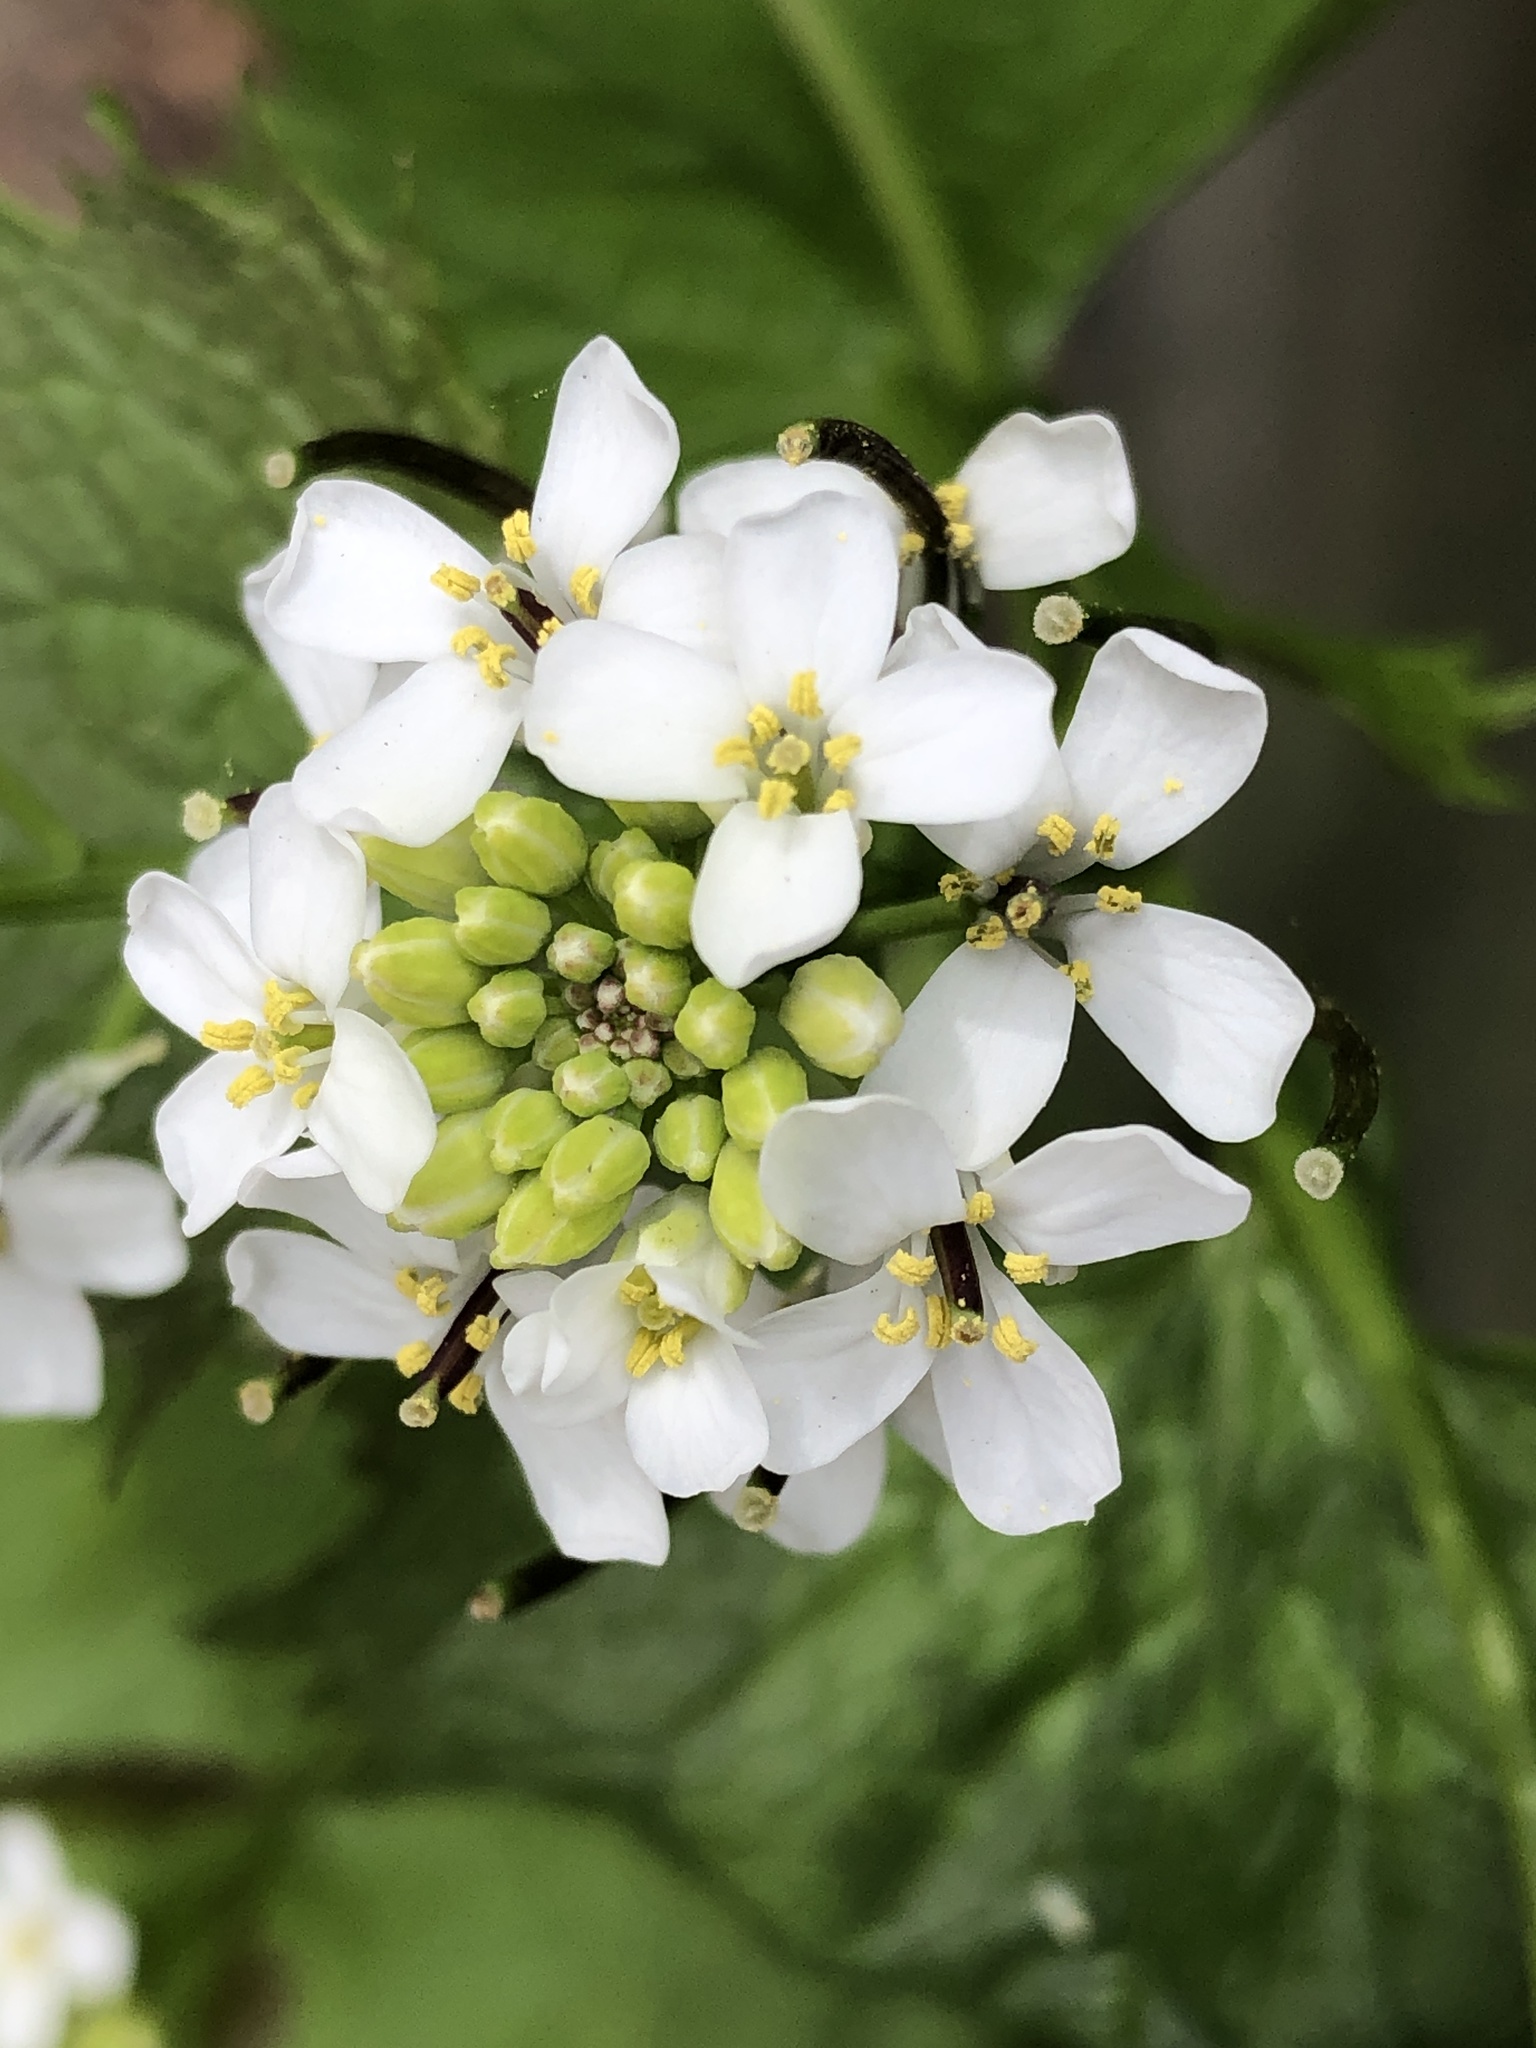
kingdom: Plantae
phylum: Tracheophyta
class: Magnoliopsida
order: Brassicales
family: Brassicaceae
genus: Alliaria
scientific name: Alliaria petiolata
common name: Garlic mustard
